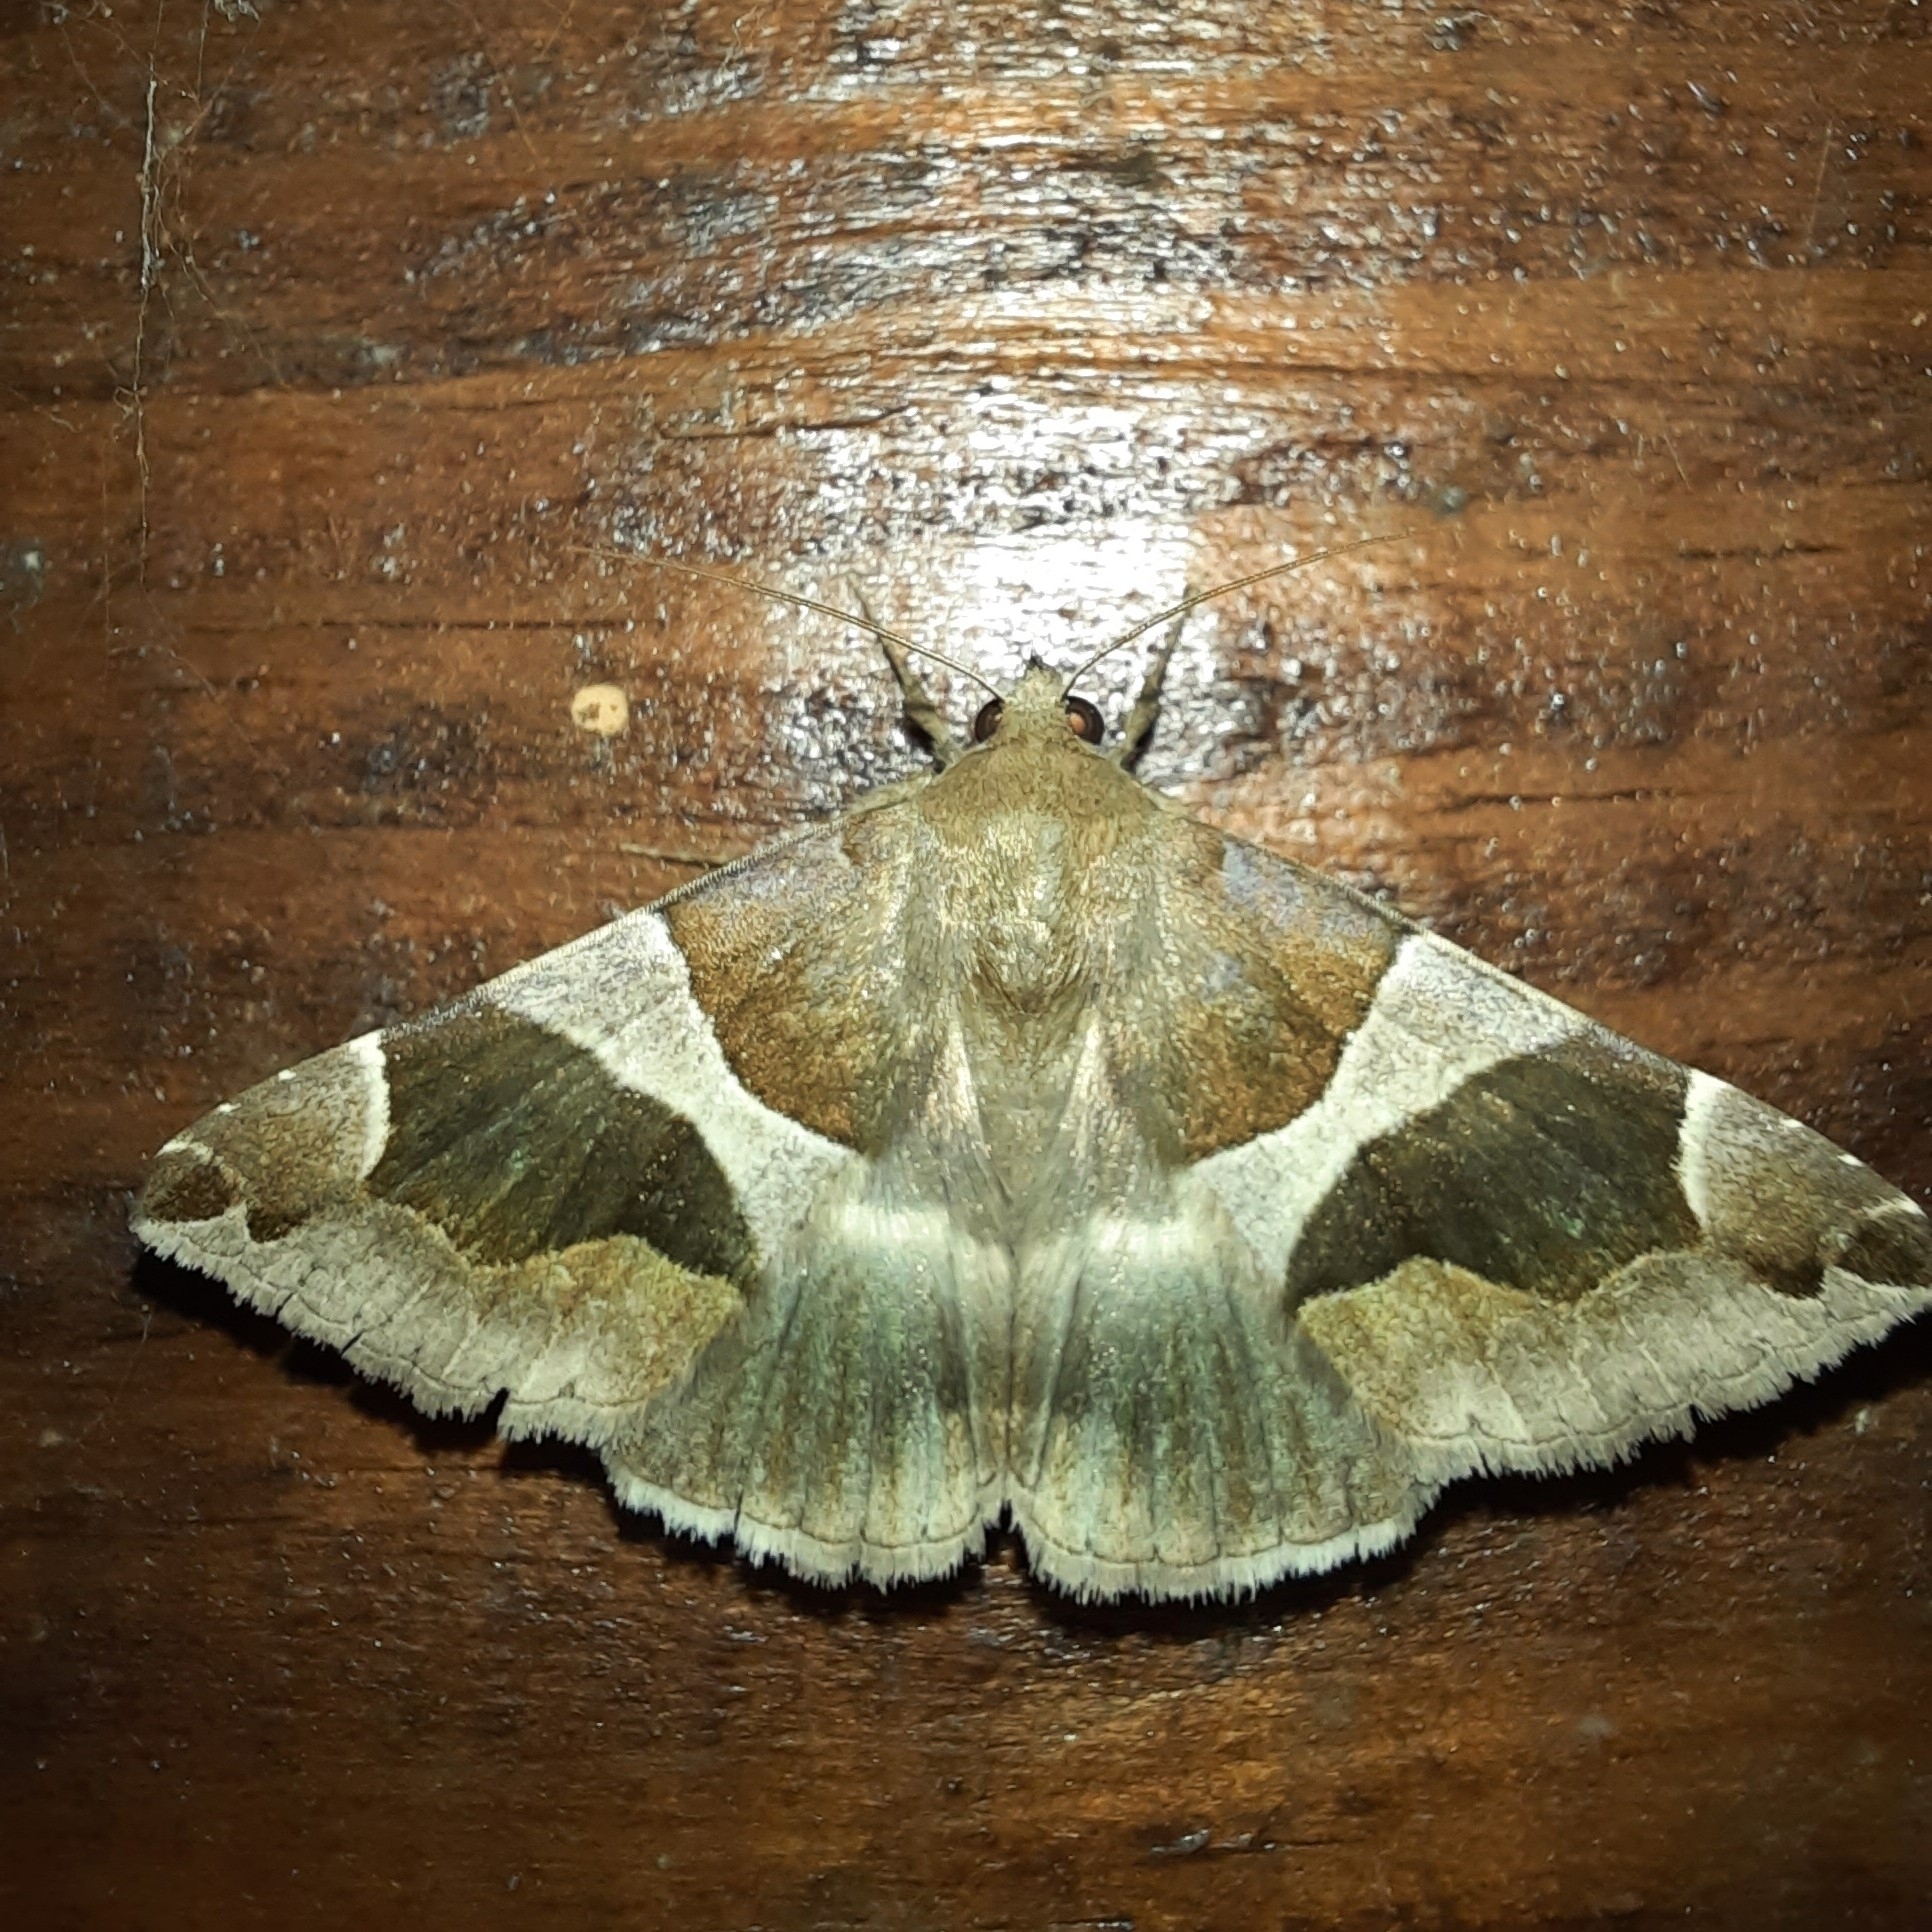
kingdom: Animalia
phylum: Arthropoda
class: Insecta
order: Lepidoptera
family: Erebidae
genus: Dysgonia
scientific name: Dysgonia algira
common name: Passenger
